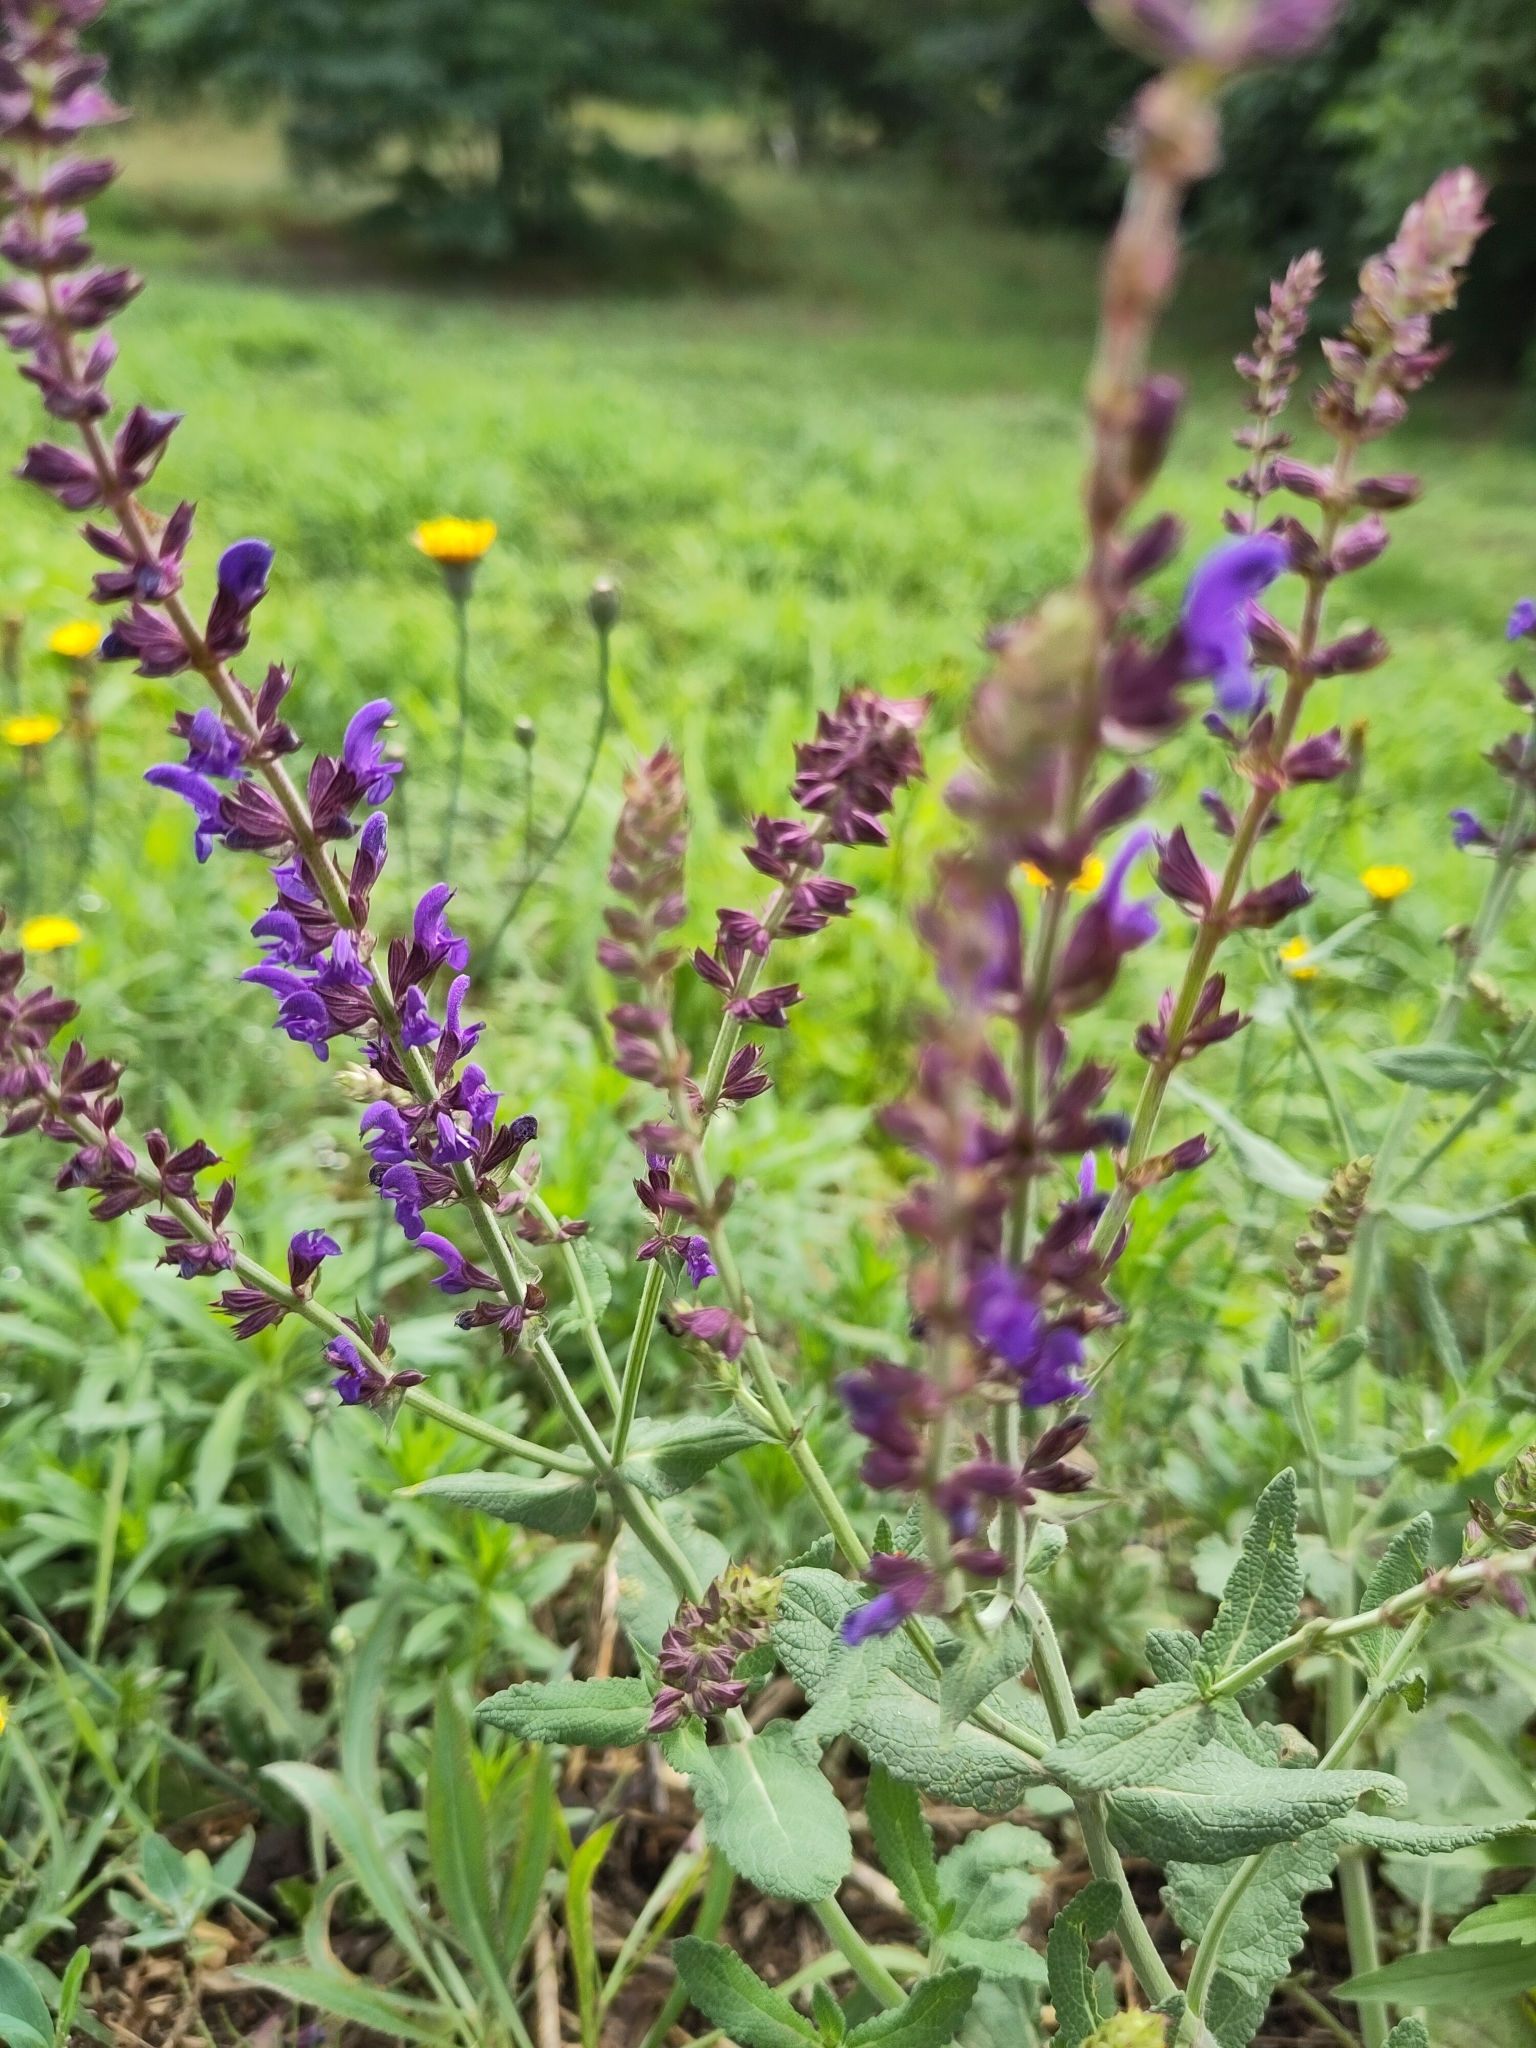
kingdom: Plantae
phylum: Tracheophyta
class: Magnoliopsida
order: Lamiales
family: Lamiaceae
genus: Salvia
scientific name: Salvia nemorosa
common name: Balkan clary
